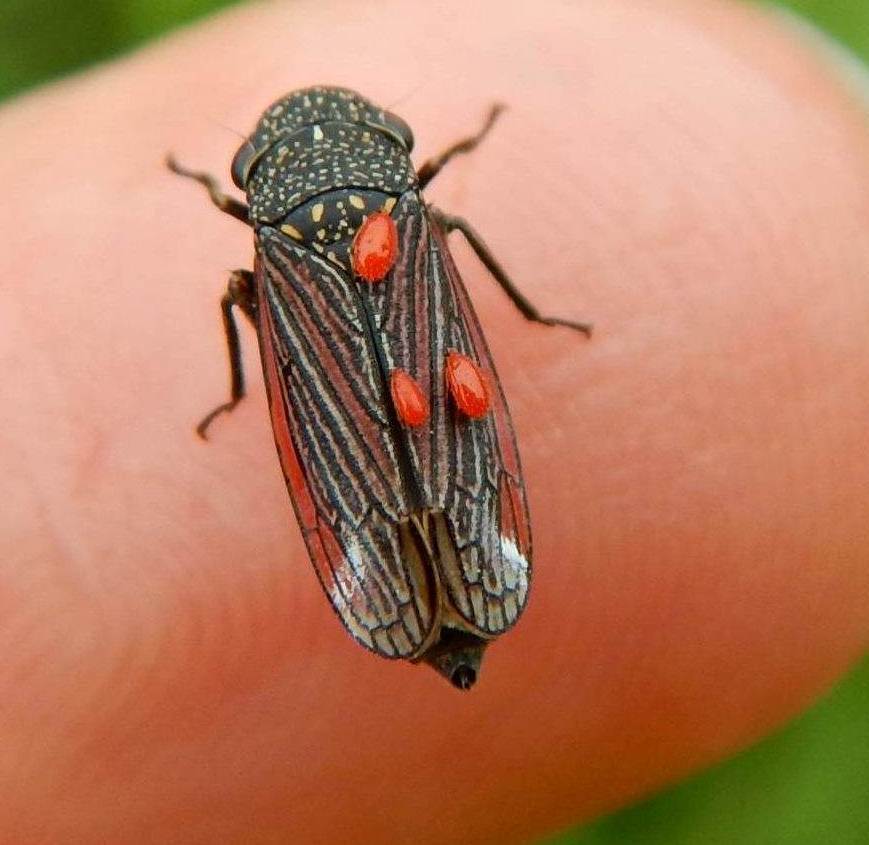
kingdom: Animalia
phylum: Arthropoda
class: Insecta
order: Hemiptera
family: Cicadellidae
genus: Cuerna
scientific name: Cuerna striata
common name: Striped leafhopper
